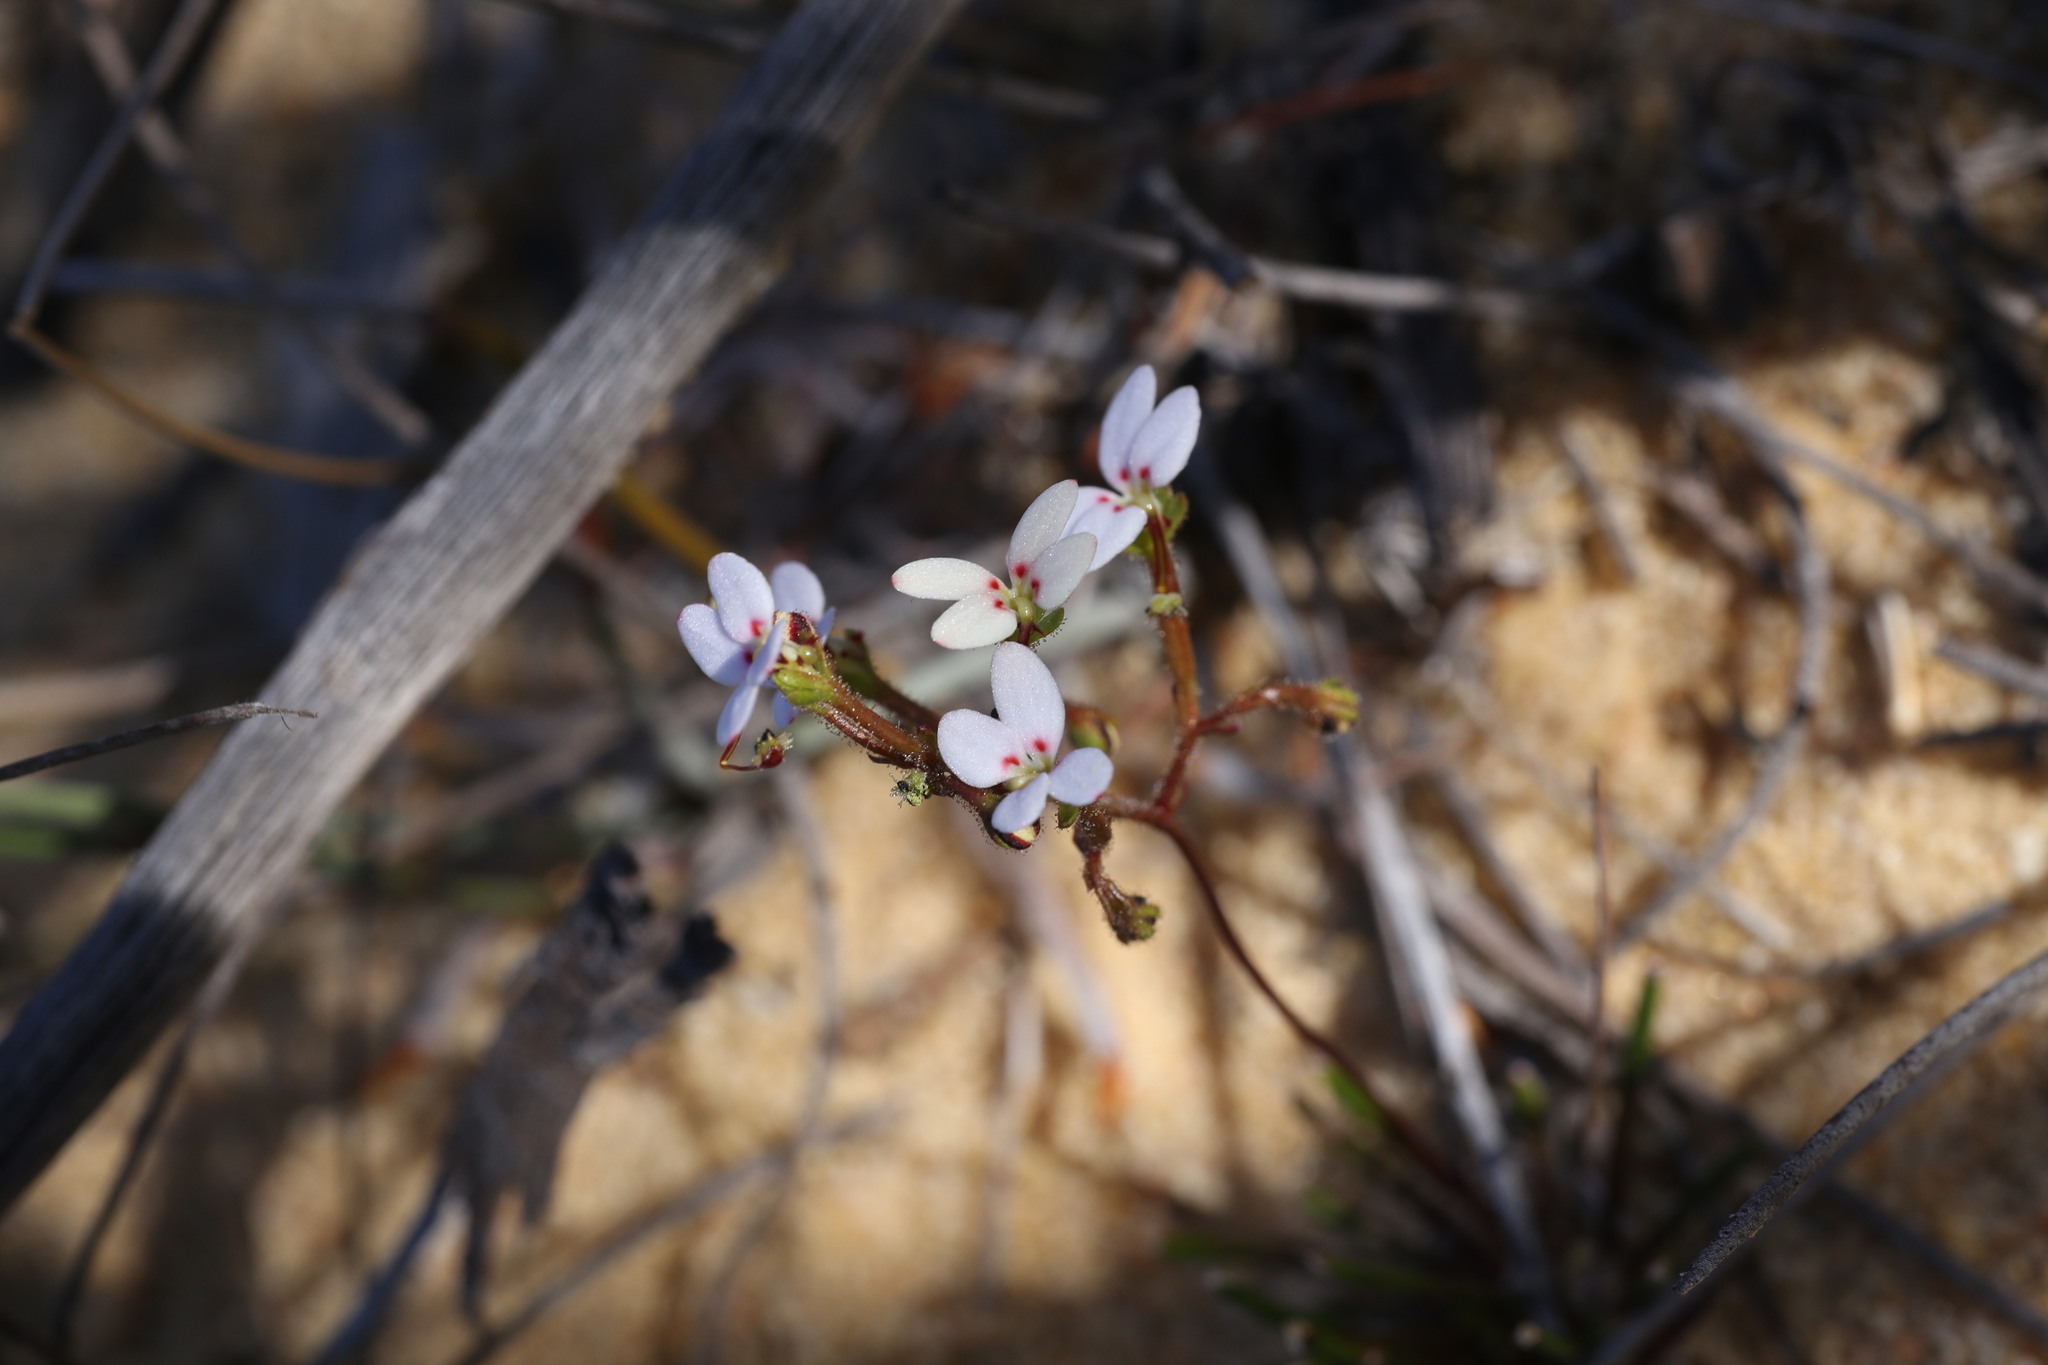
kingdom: Plantae
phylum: Tracheophyta
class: Magnoliopsida
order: Asterales
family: Stylidiaceae
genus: Stylidium
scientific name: Stylidium kalbarriense
